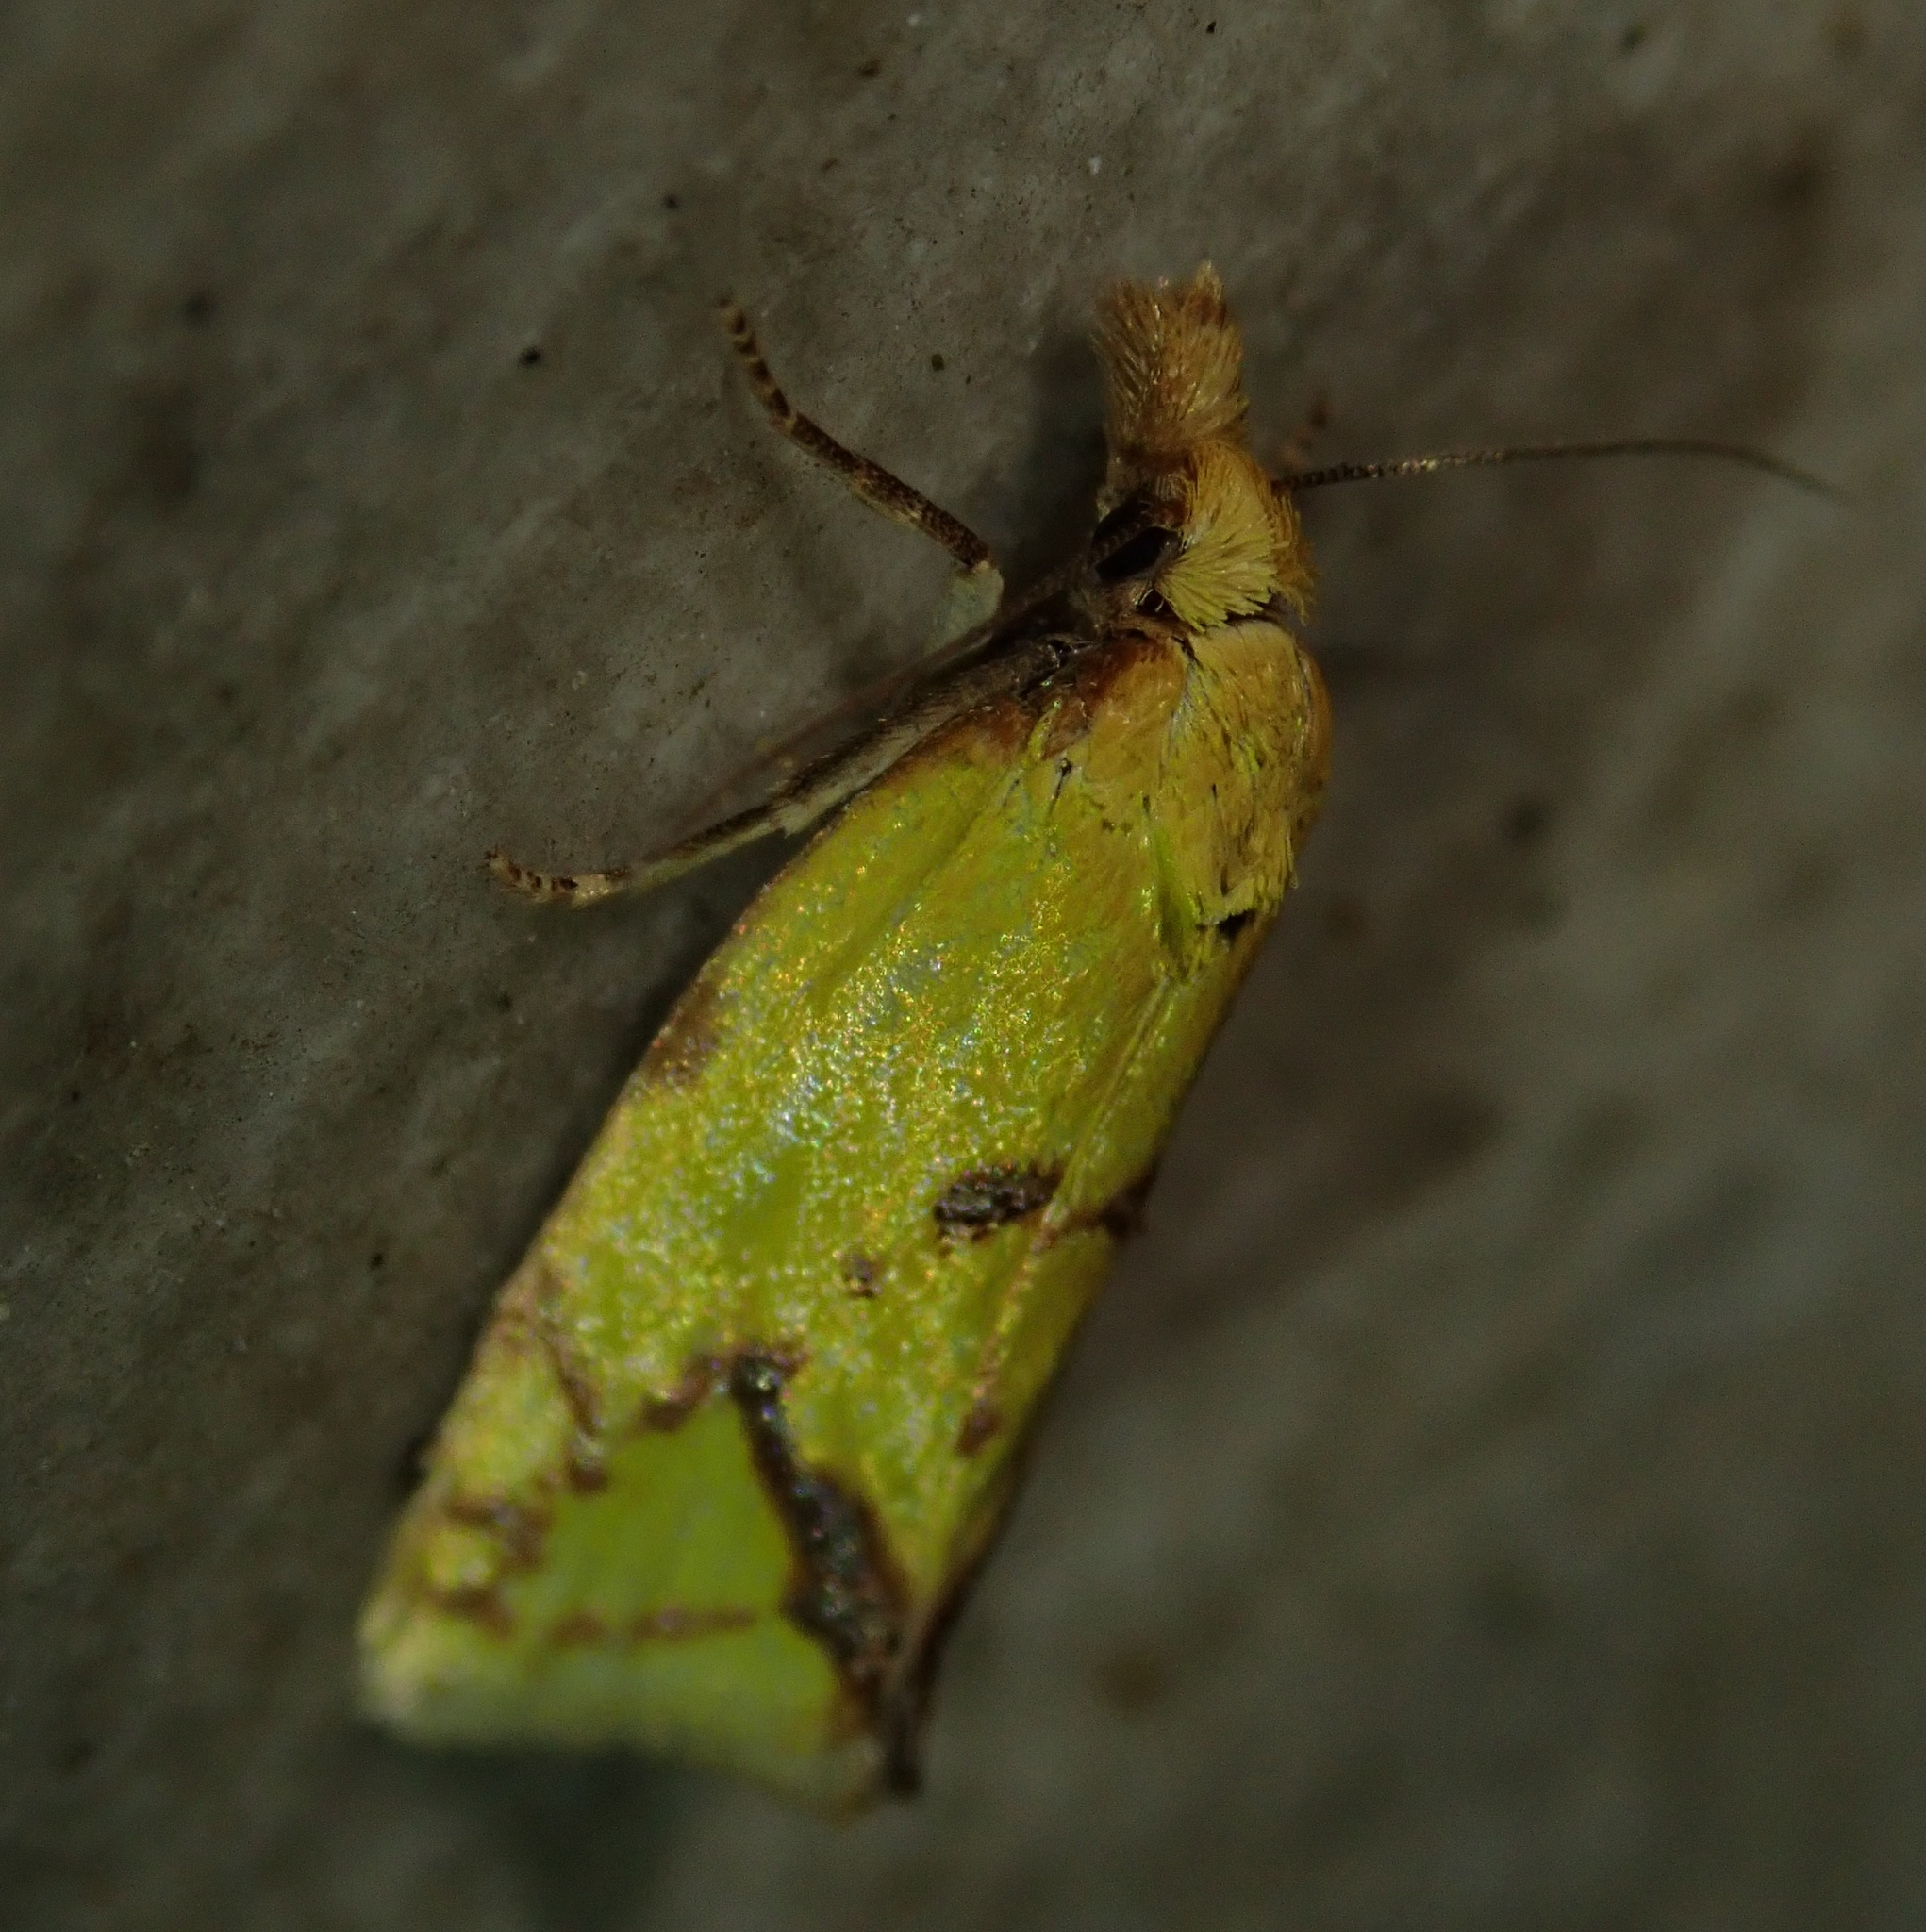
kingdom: Animalia
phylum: Arthropoda
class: Insecta
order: Lepidoptera
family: Tortricidae
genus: Agapeta
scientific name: Agapeta hamana
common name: Common yellow conch
